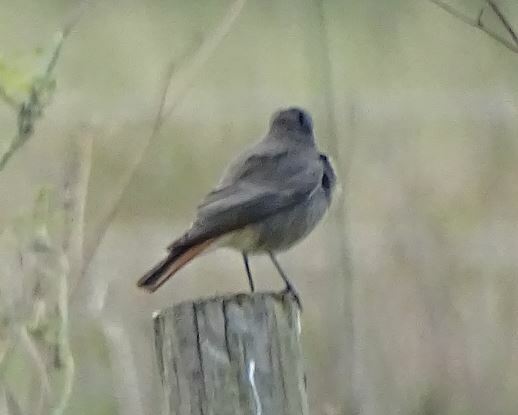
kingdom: Animalia
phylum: Chordata
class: Aves
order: Passeriformes
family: Muscicapidae
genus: Phoenicurus
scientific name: Phoenicurus ochruros
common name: Black redstart
